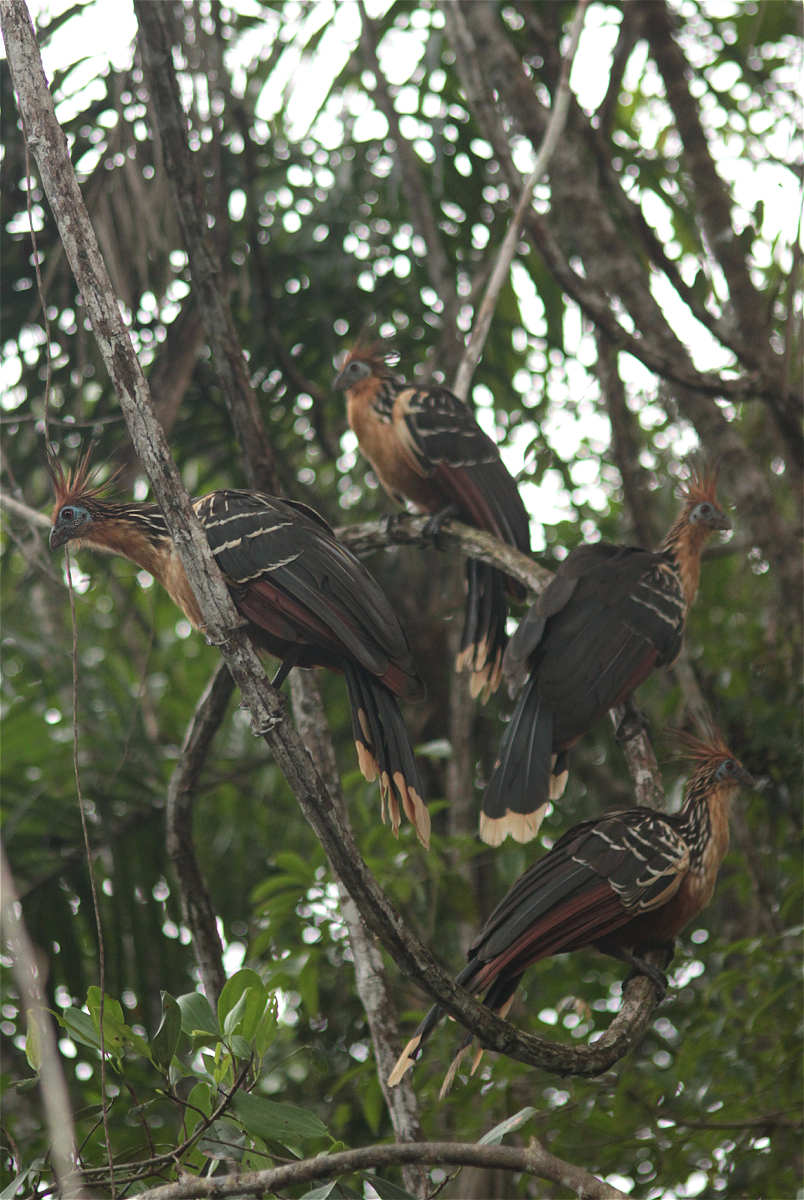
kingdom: Animalia
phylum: Chordata
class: Aves
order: Opisthocomiformes
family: Opisthocomidae
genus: Opisthocomus
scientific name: Opisthocomus hoazin
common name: Hoatzin
